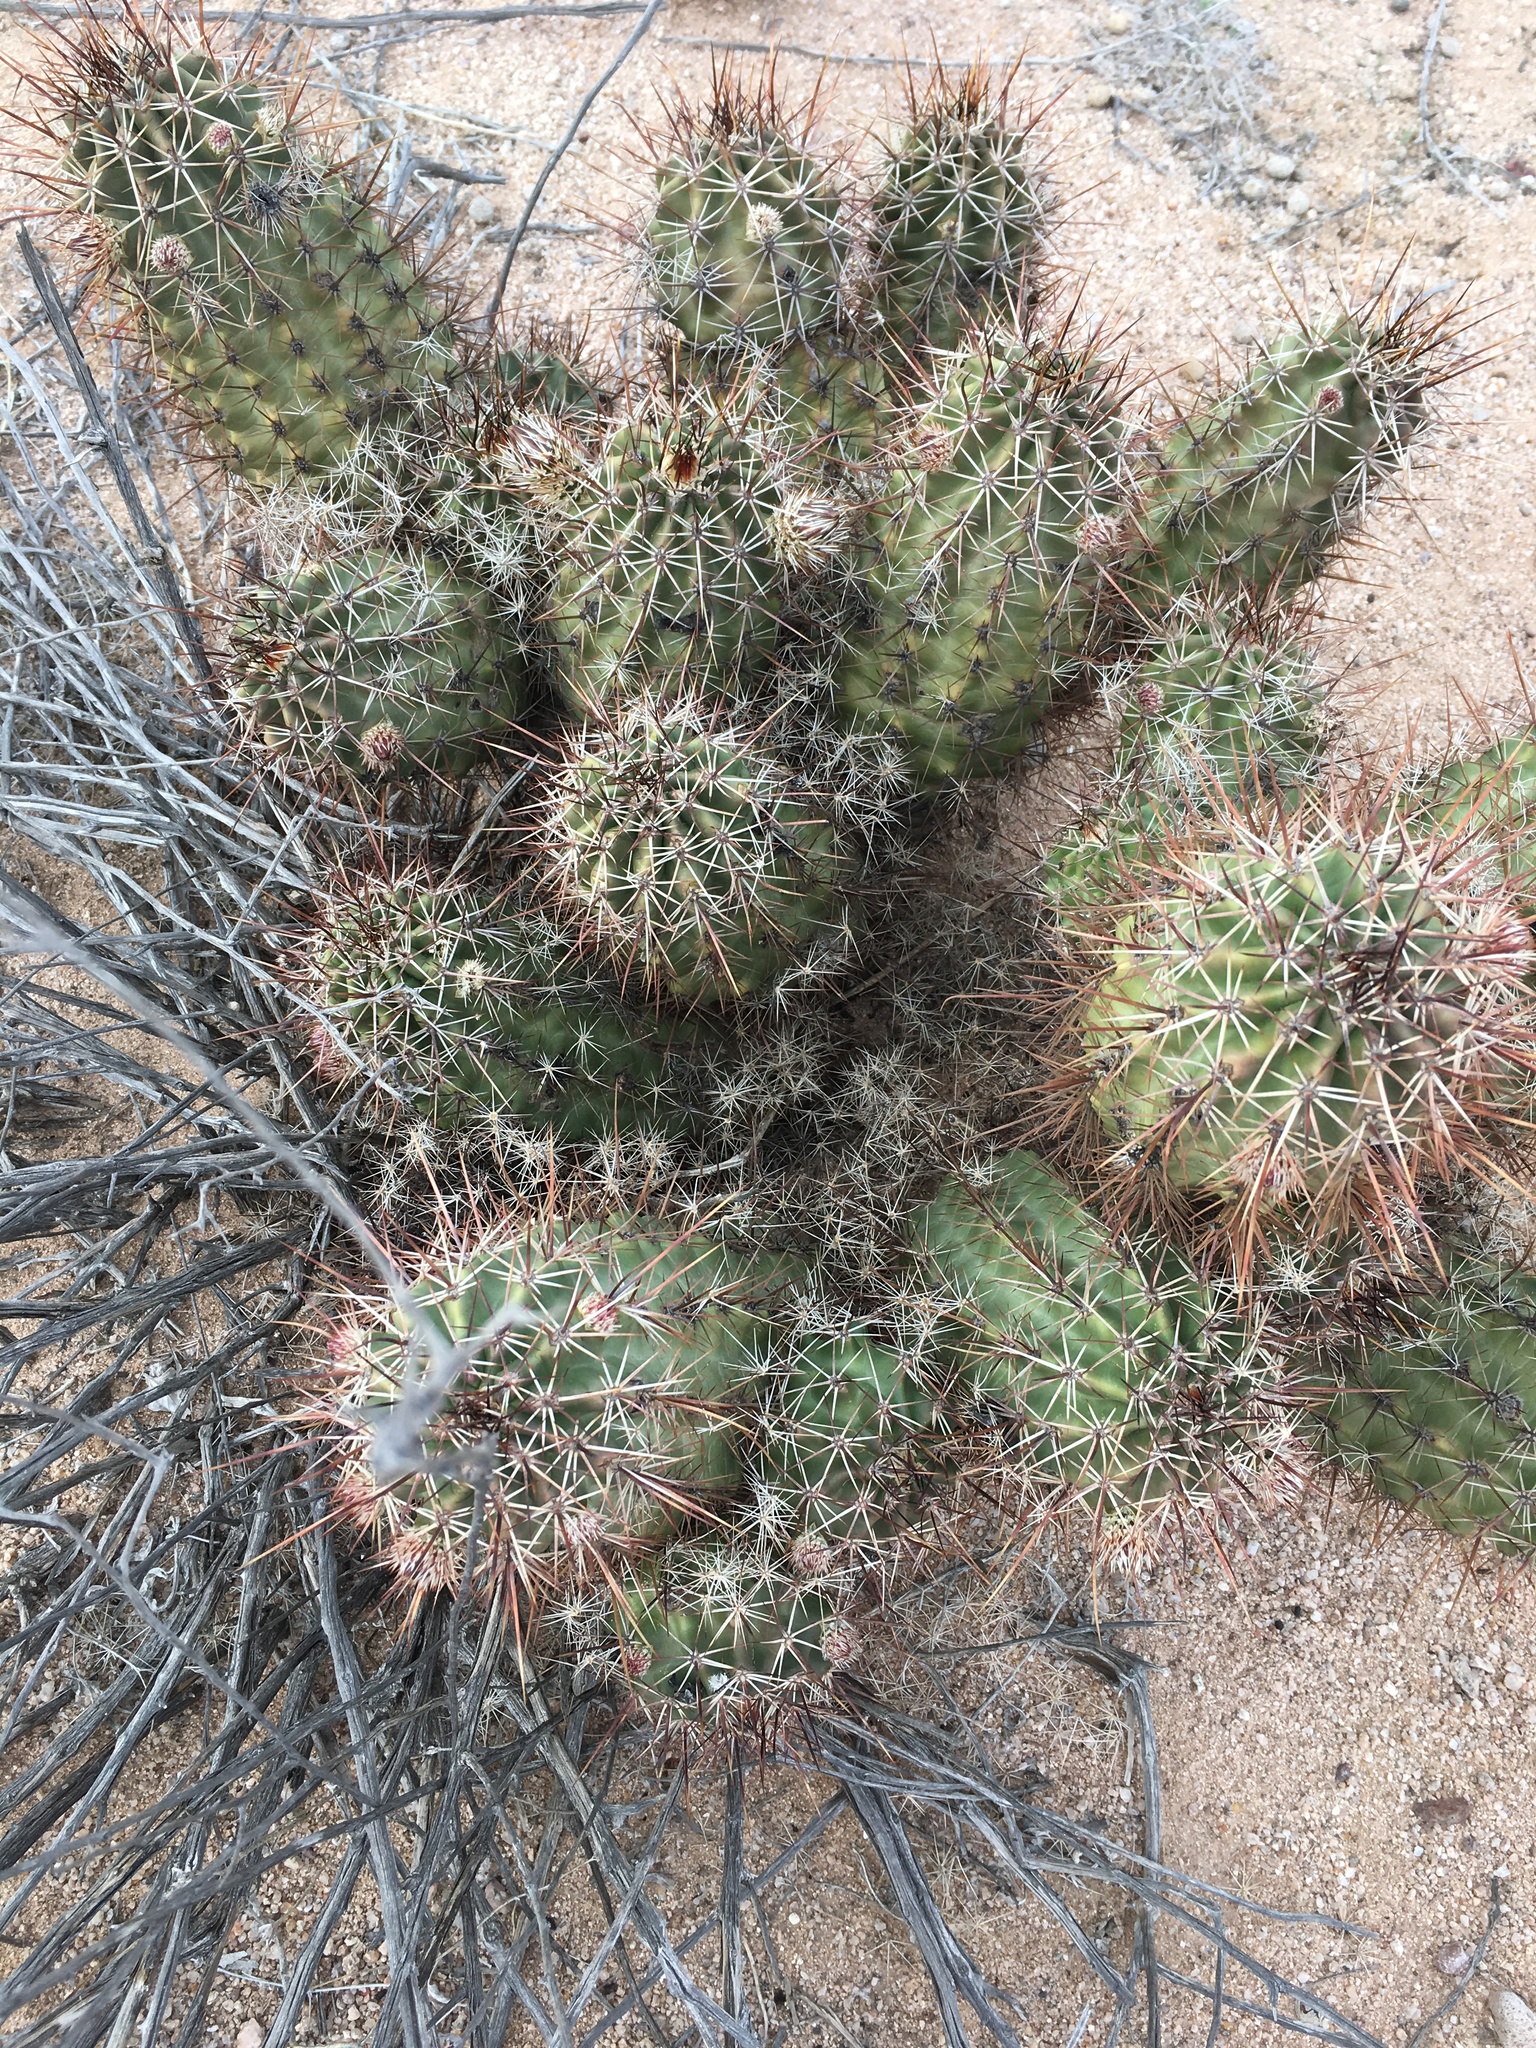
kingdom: Plantae
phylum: Tracheophyta
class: Magnoliopsida
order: Caryophyllales
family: Cactaceae
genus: Echinocereus
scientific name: Echinocereus fasciculatus
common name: Bundle hedgehog
